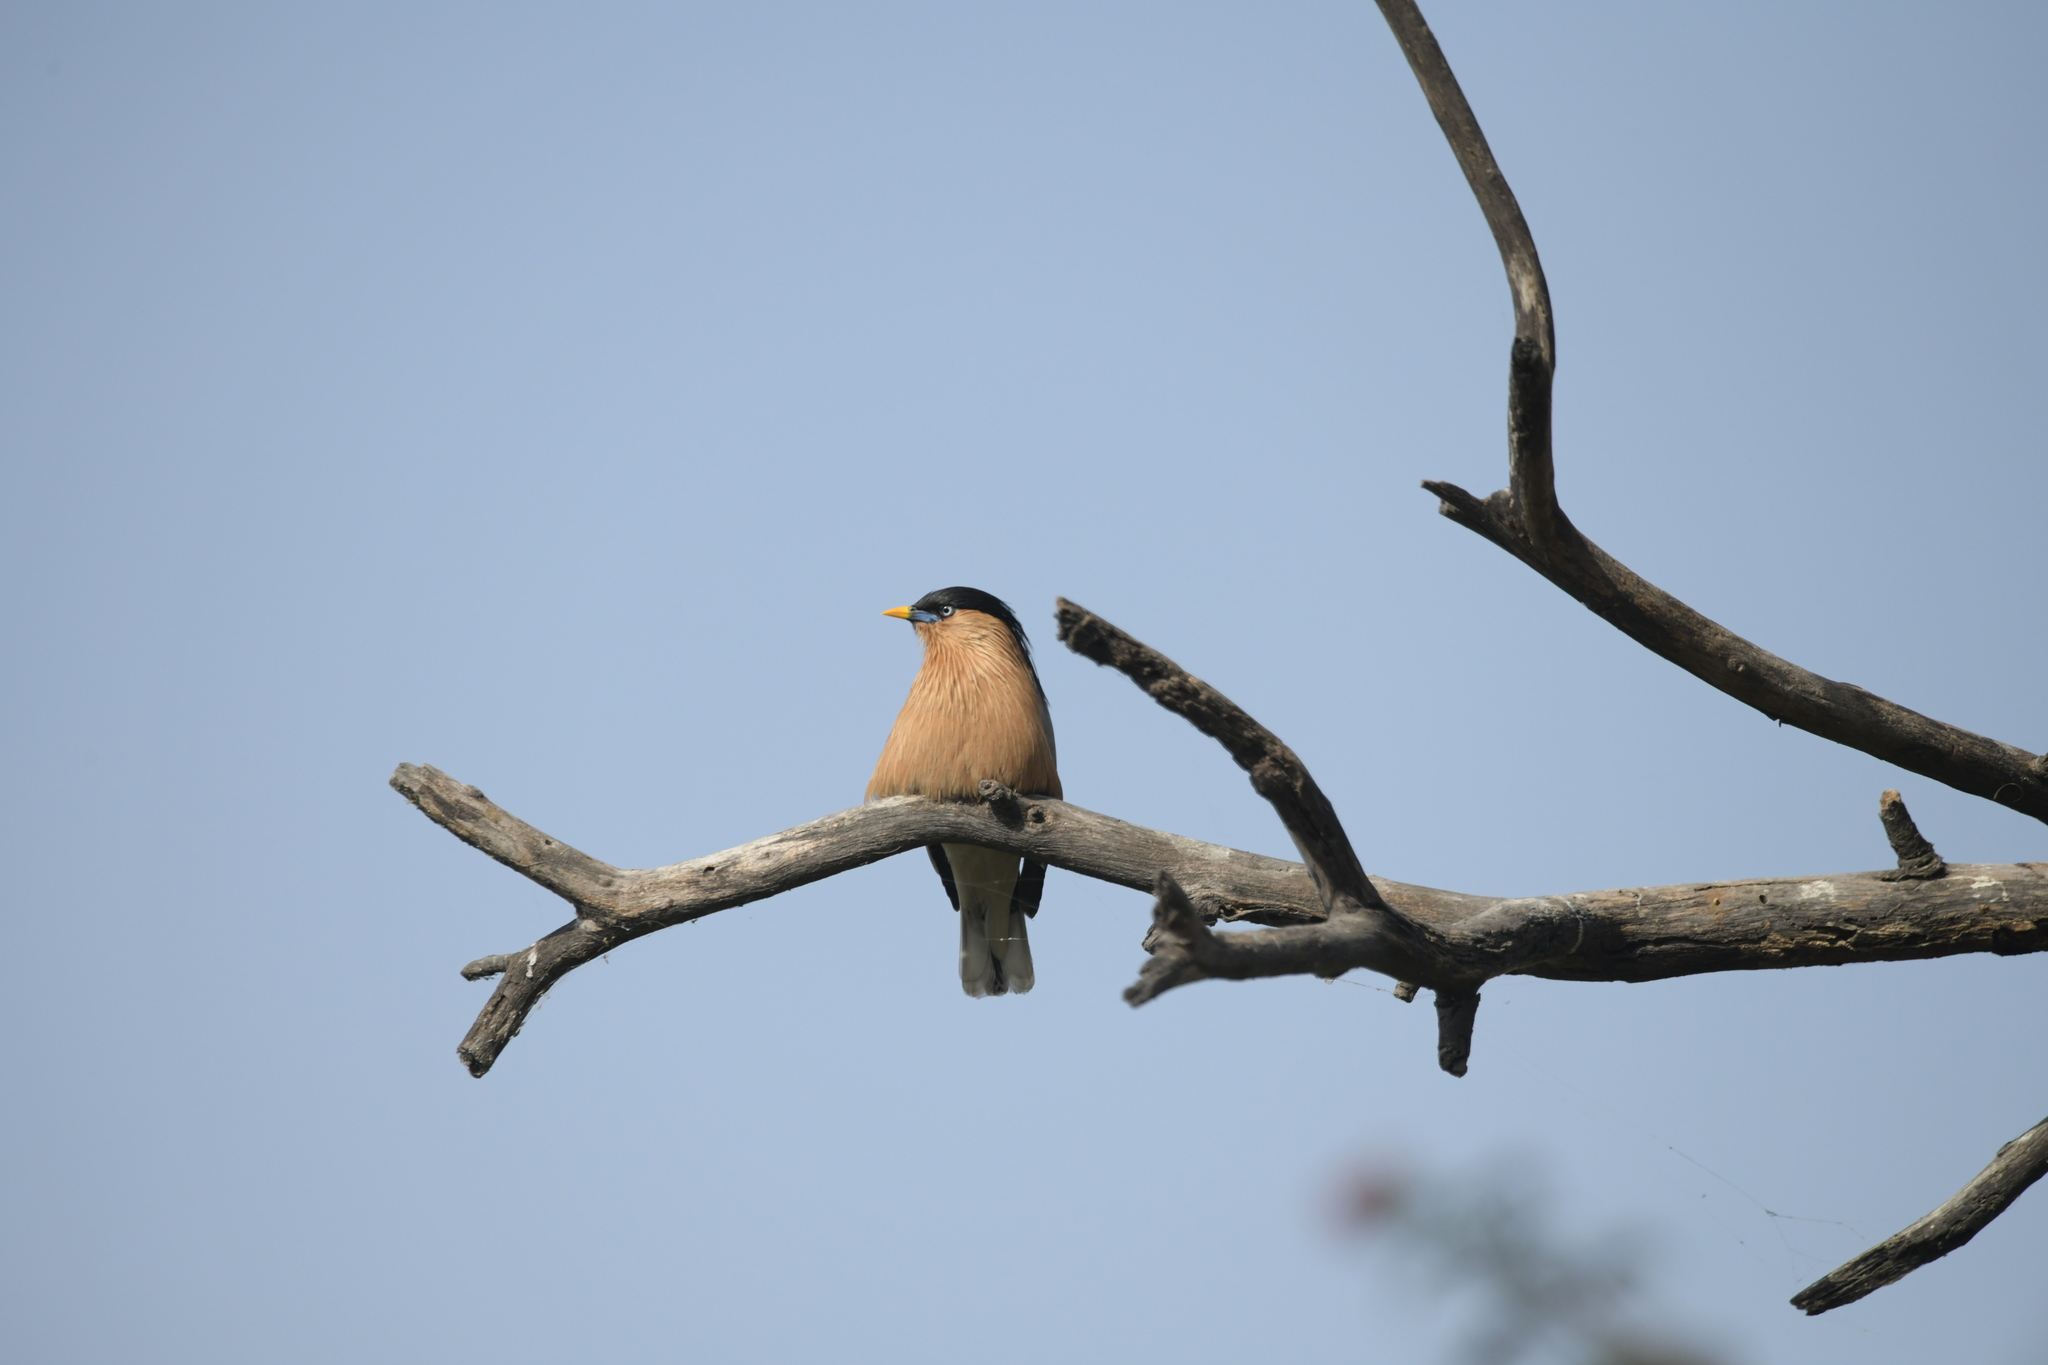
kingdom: Animalia
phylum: Chordata
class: Aves
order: Passeriformes
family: Sturnidae
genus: Sturnia
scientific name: Sturnia pagodarum
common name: Brahminy starling
